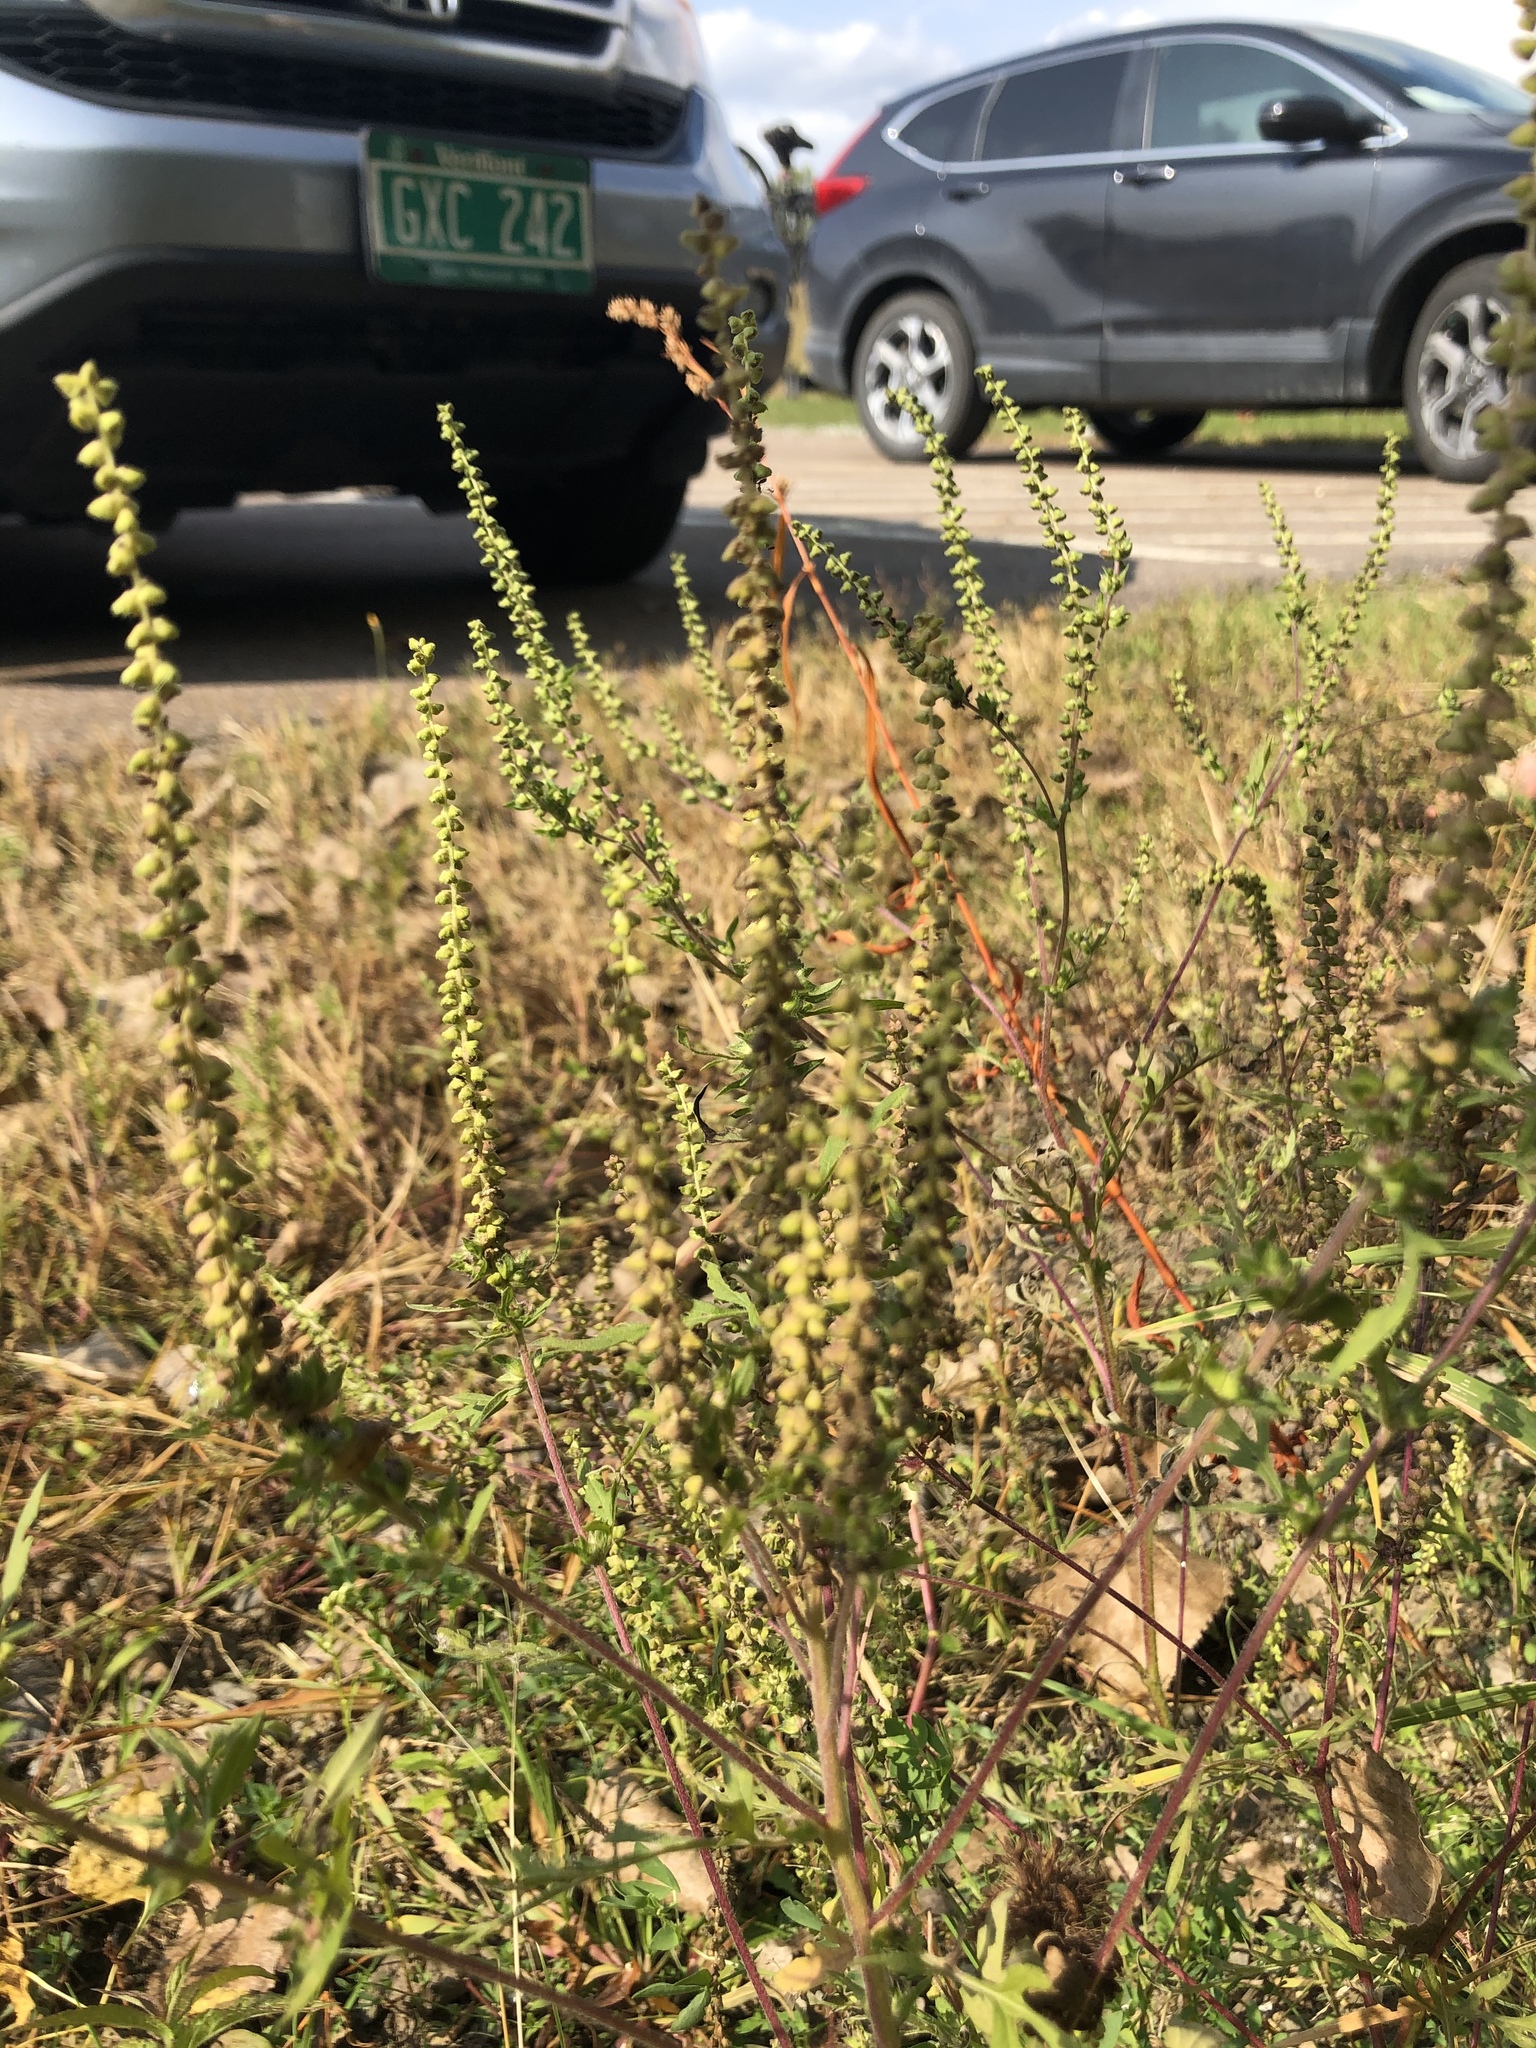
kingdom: Plantae
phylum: Tracheophyta
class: Magnoliopsida
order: Asterales
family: Asteraceae
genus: Ambrosia
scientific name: Ambrosia artemisiifolia
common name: Annual ragweed
